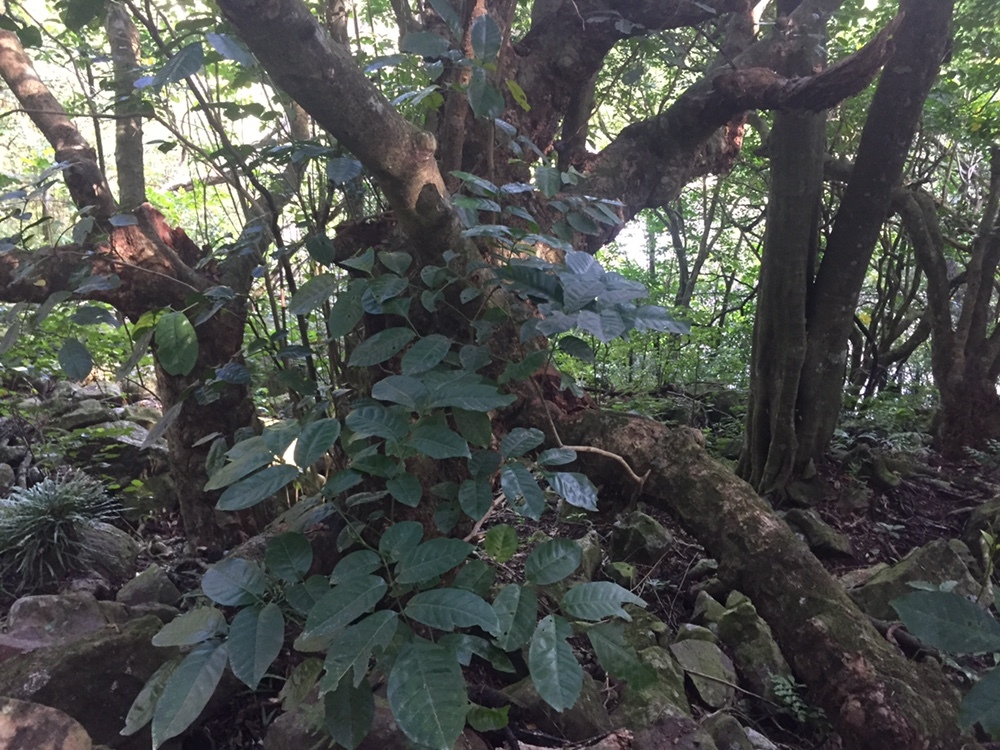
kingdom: Plantae
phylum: Tracheophyta
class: Magnoliopsida
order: Sapindales
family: Meliaceae
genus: Didymocheton
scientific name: Didymocheton spectabilis
